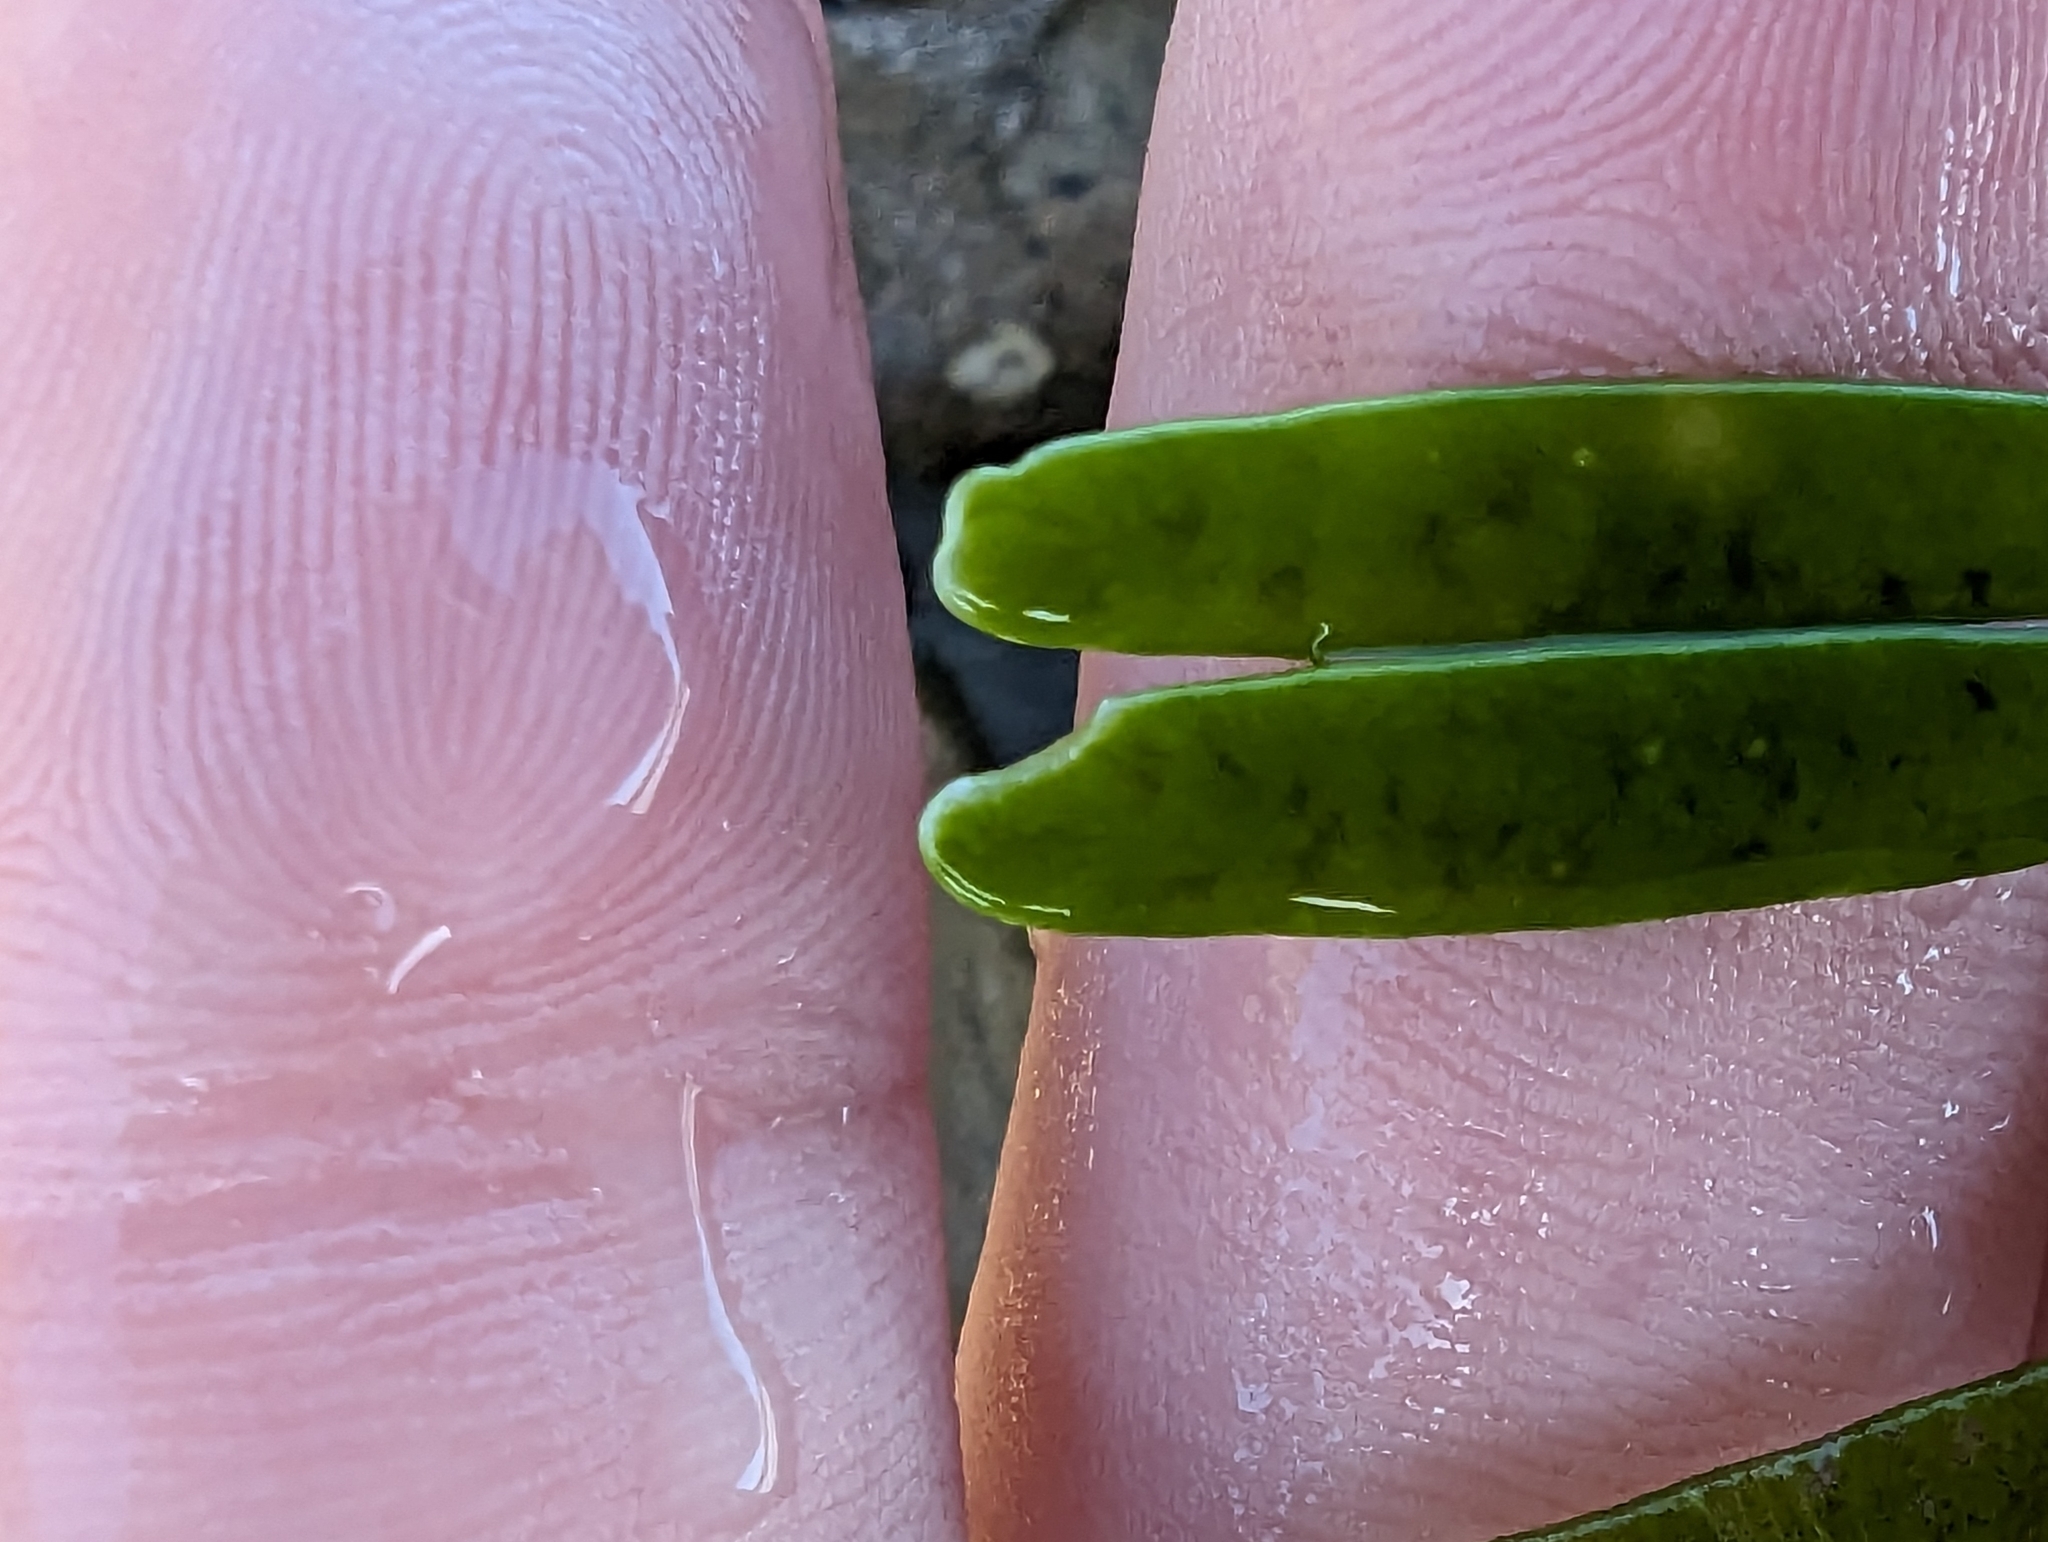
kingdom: Plantae
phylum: Chlorophyta
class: Ulvophyceae
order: Bryopsidales
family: Caulerpaceae
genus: Caulerpa
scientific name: Caulerpa filiformis
